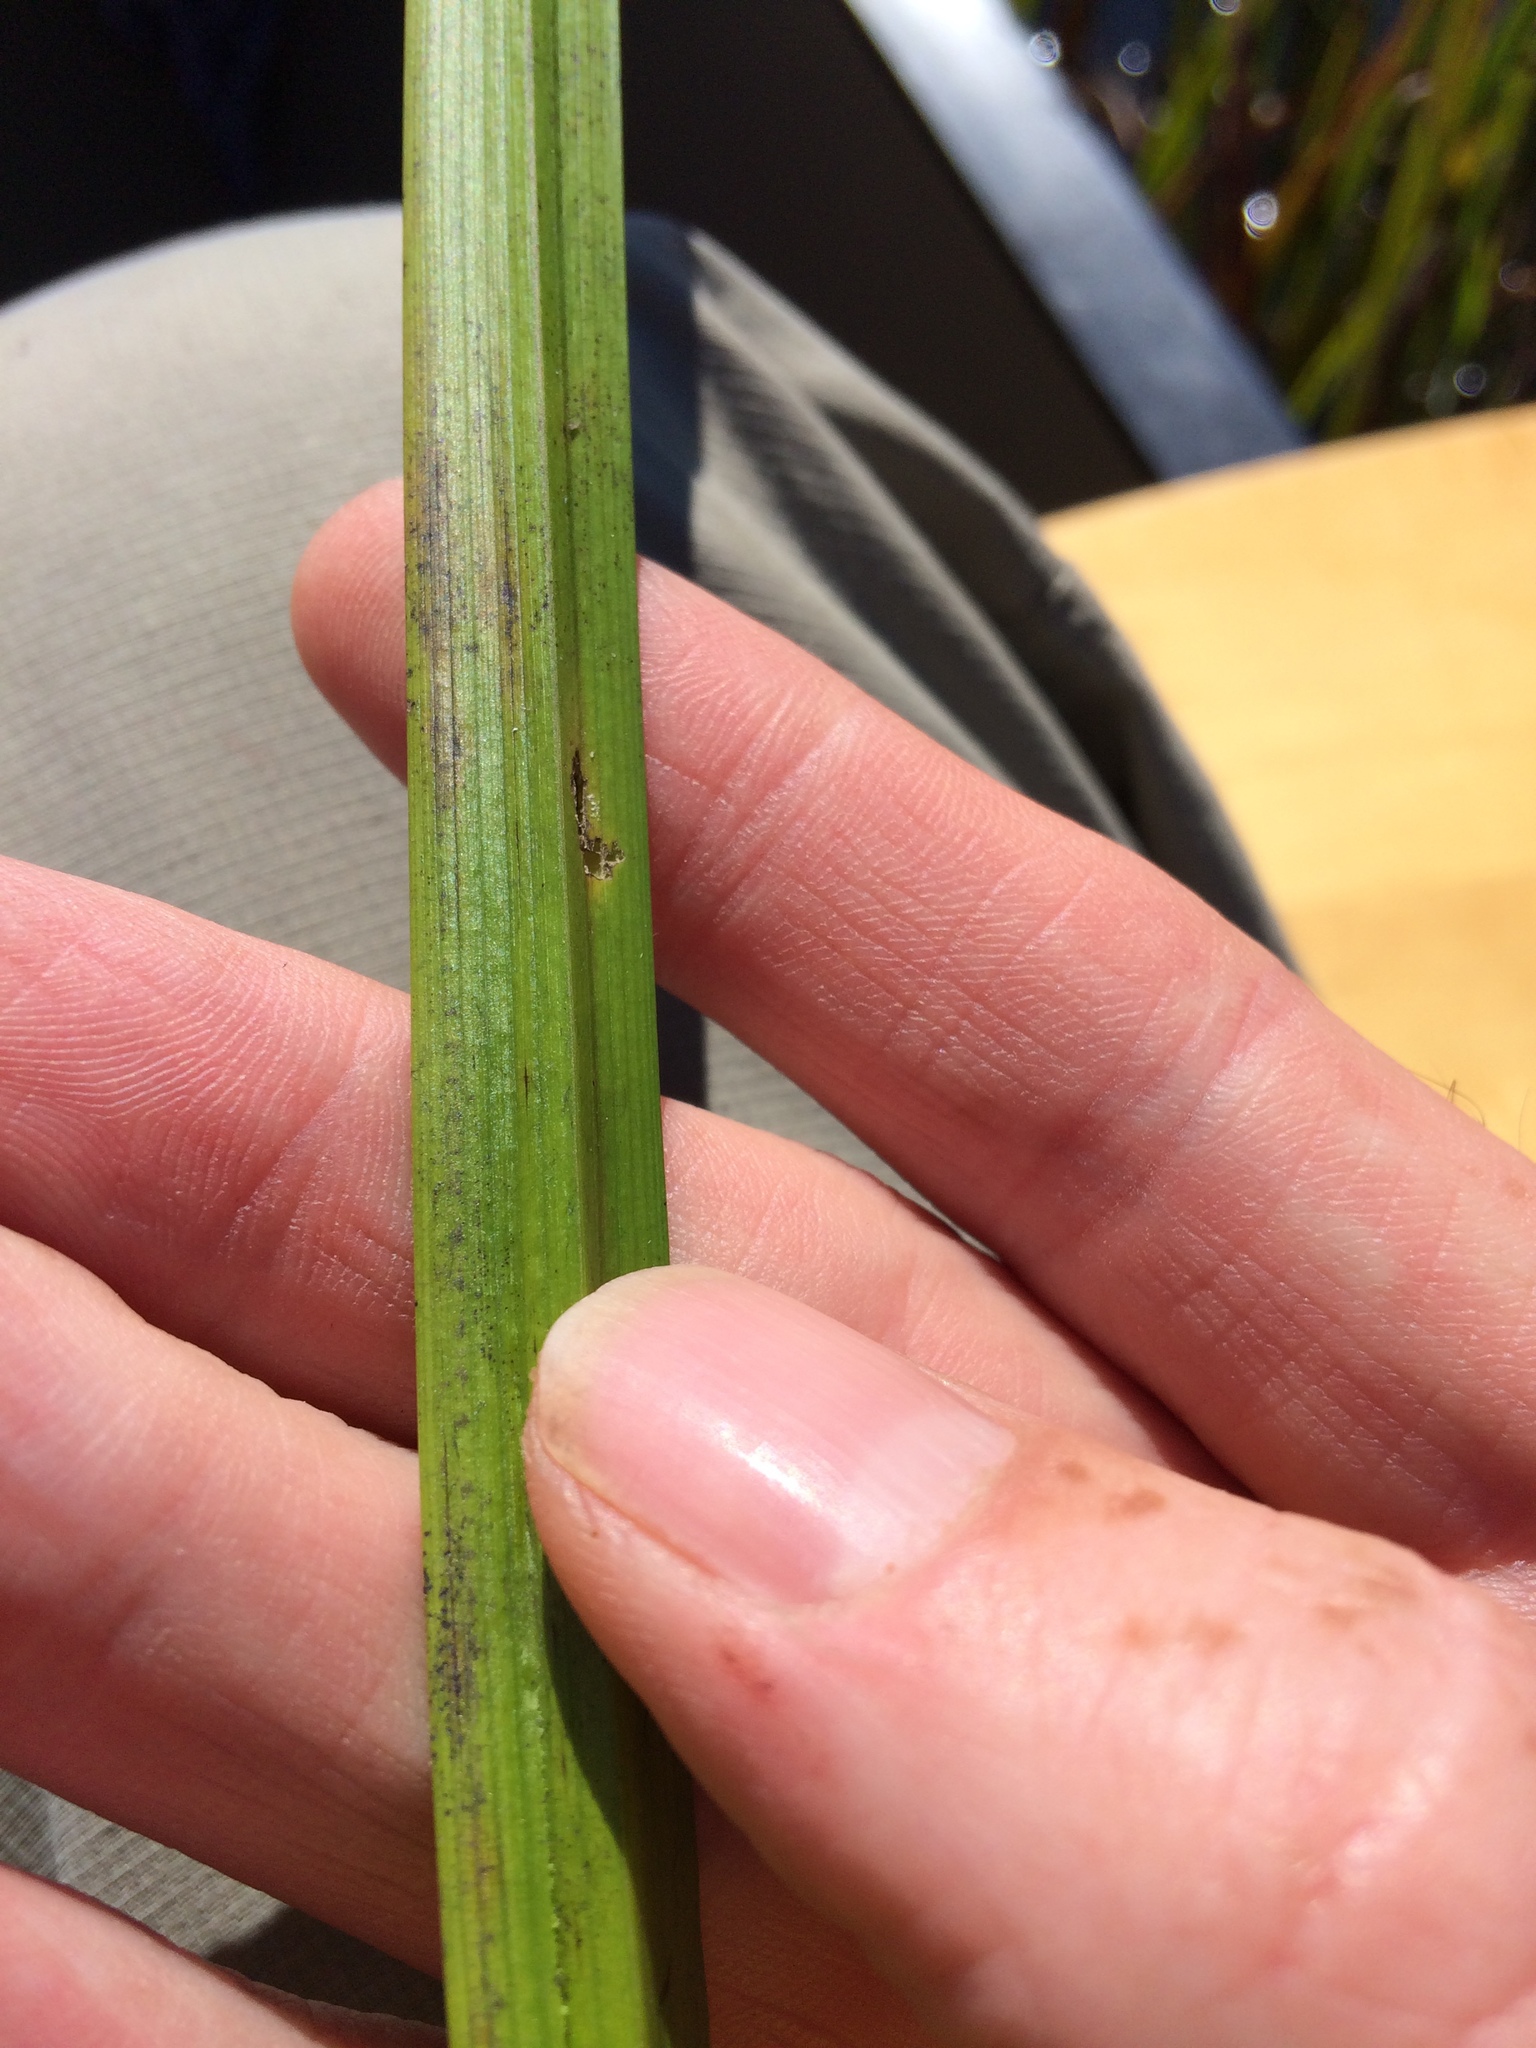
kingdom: Plantae
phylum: Tracheophyta
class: Liliopsida
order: Acorales
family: Acoraceae
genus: Acorus
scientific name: Acorus calamus
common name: Sweet-flag
